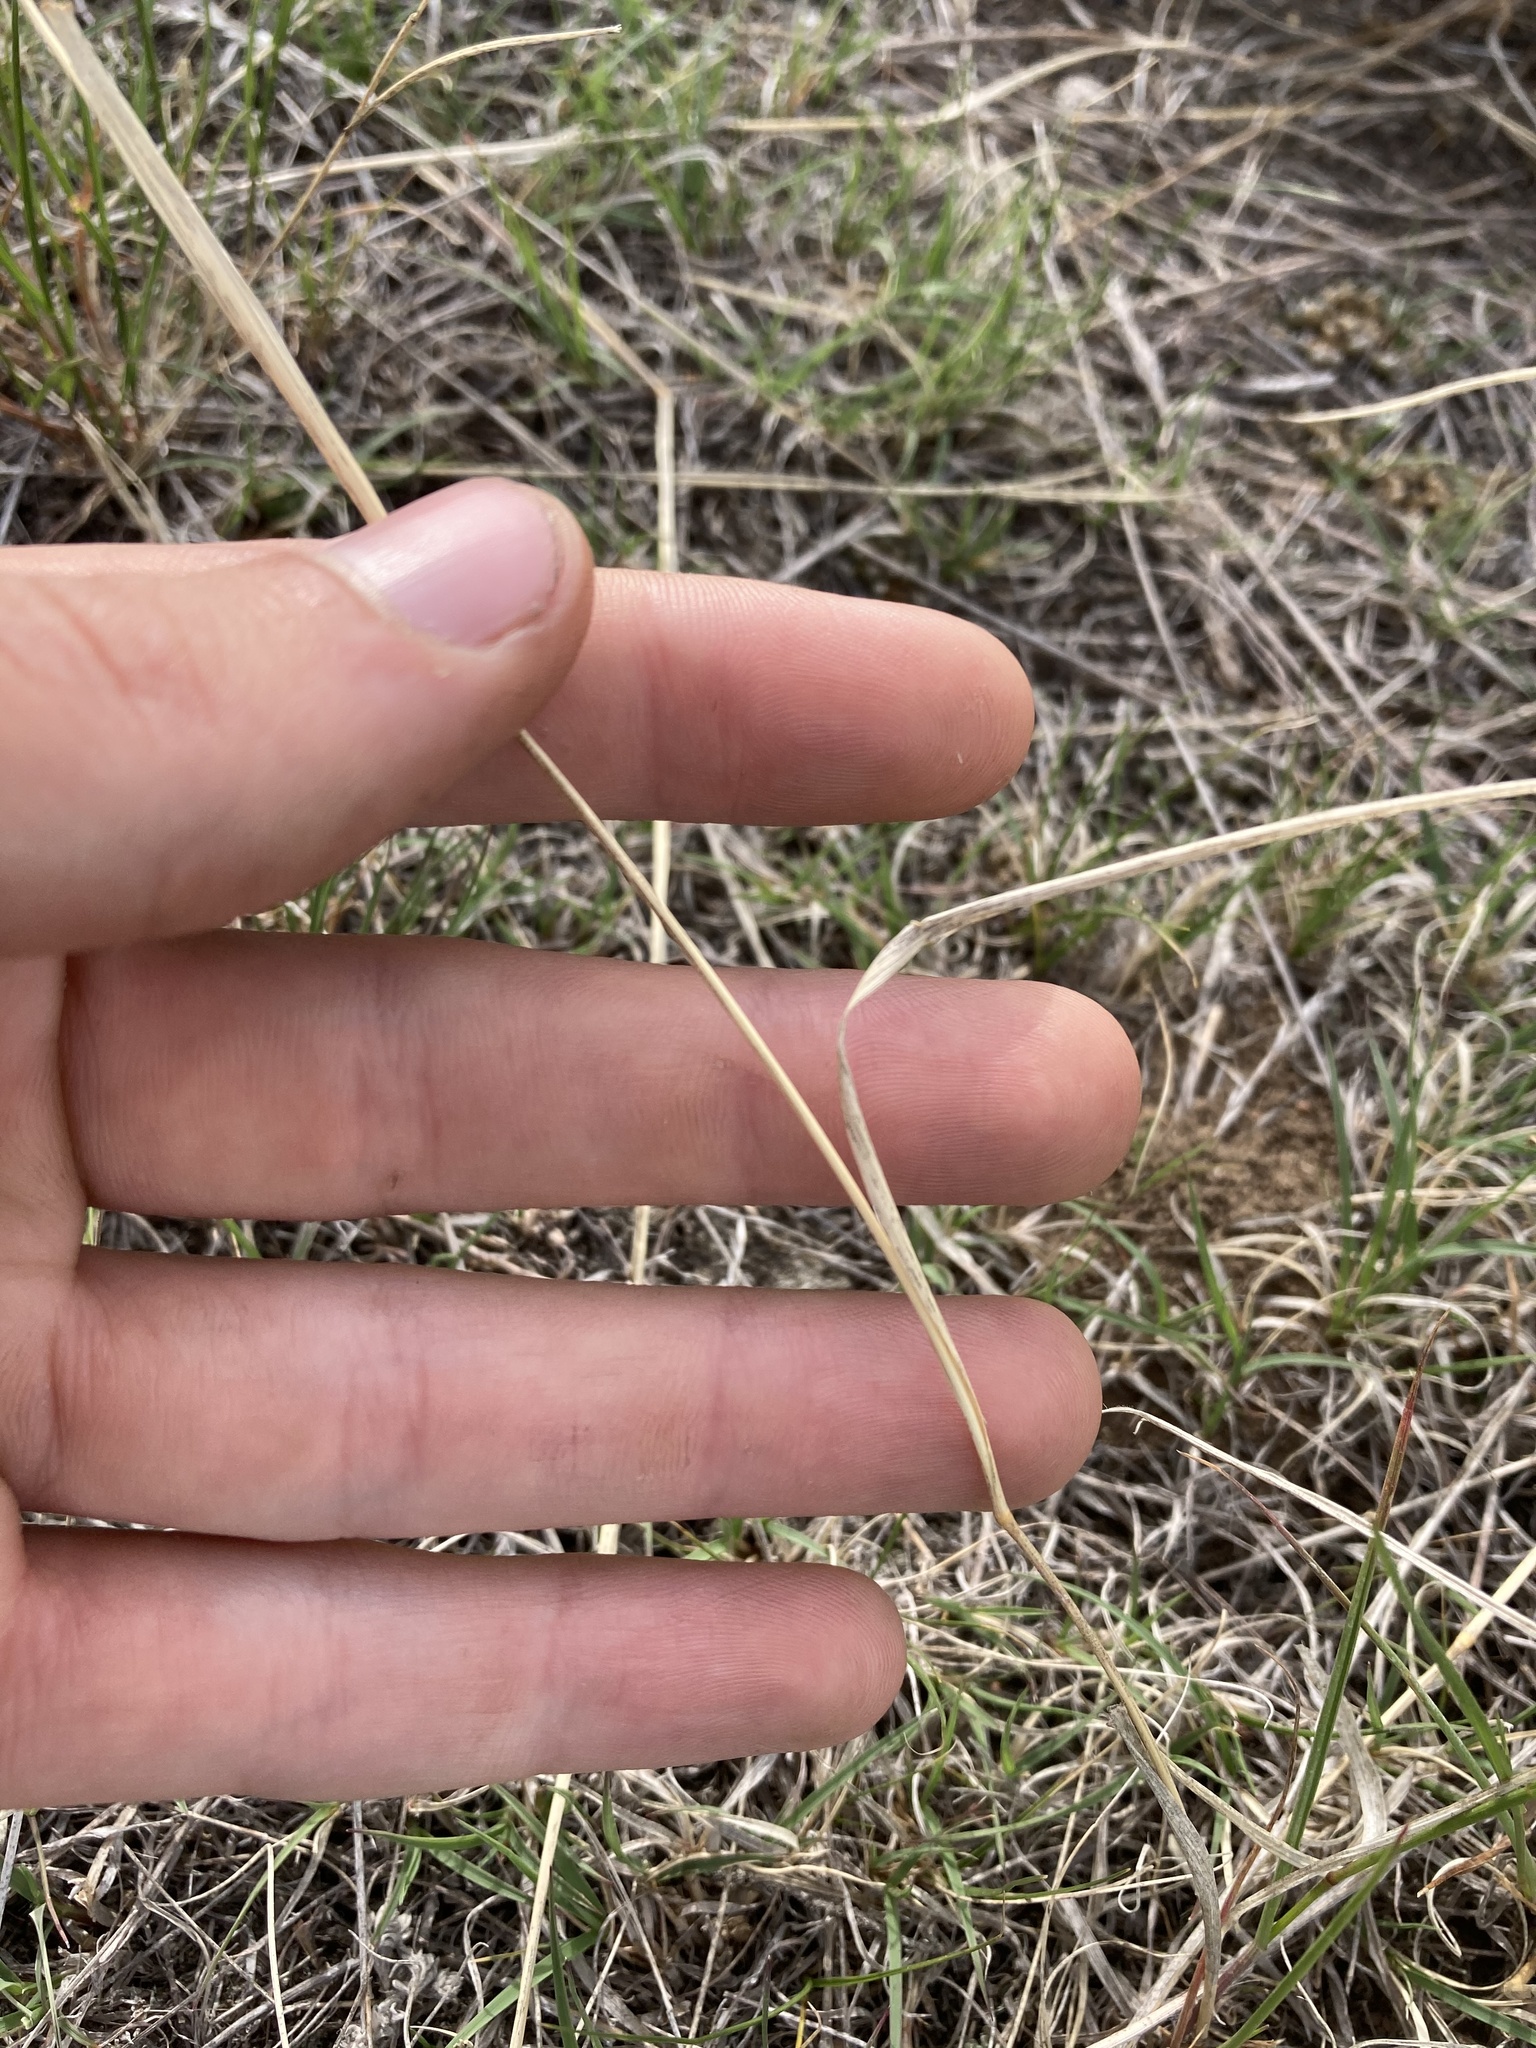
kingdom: Plantae
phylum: Tracheophyta
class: Liliopsida
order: Poales
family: Poaceae
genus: Agropyron
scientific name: Agropyron cristatum
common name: Crested wheatgrass
